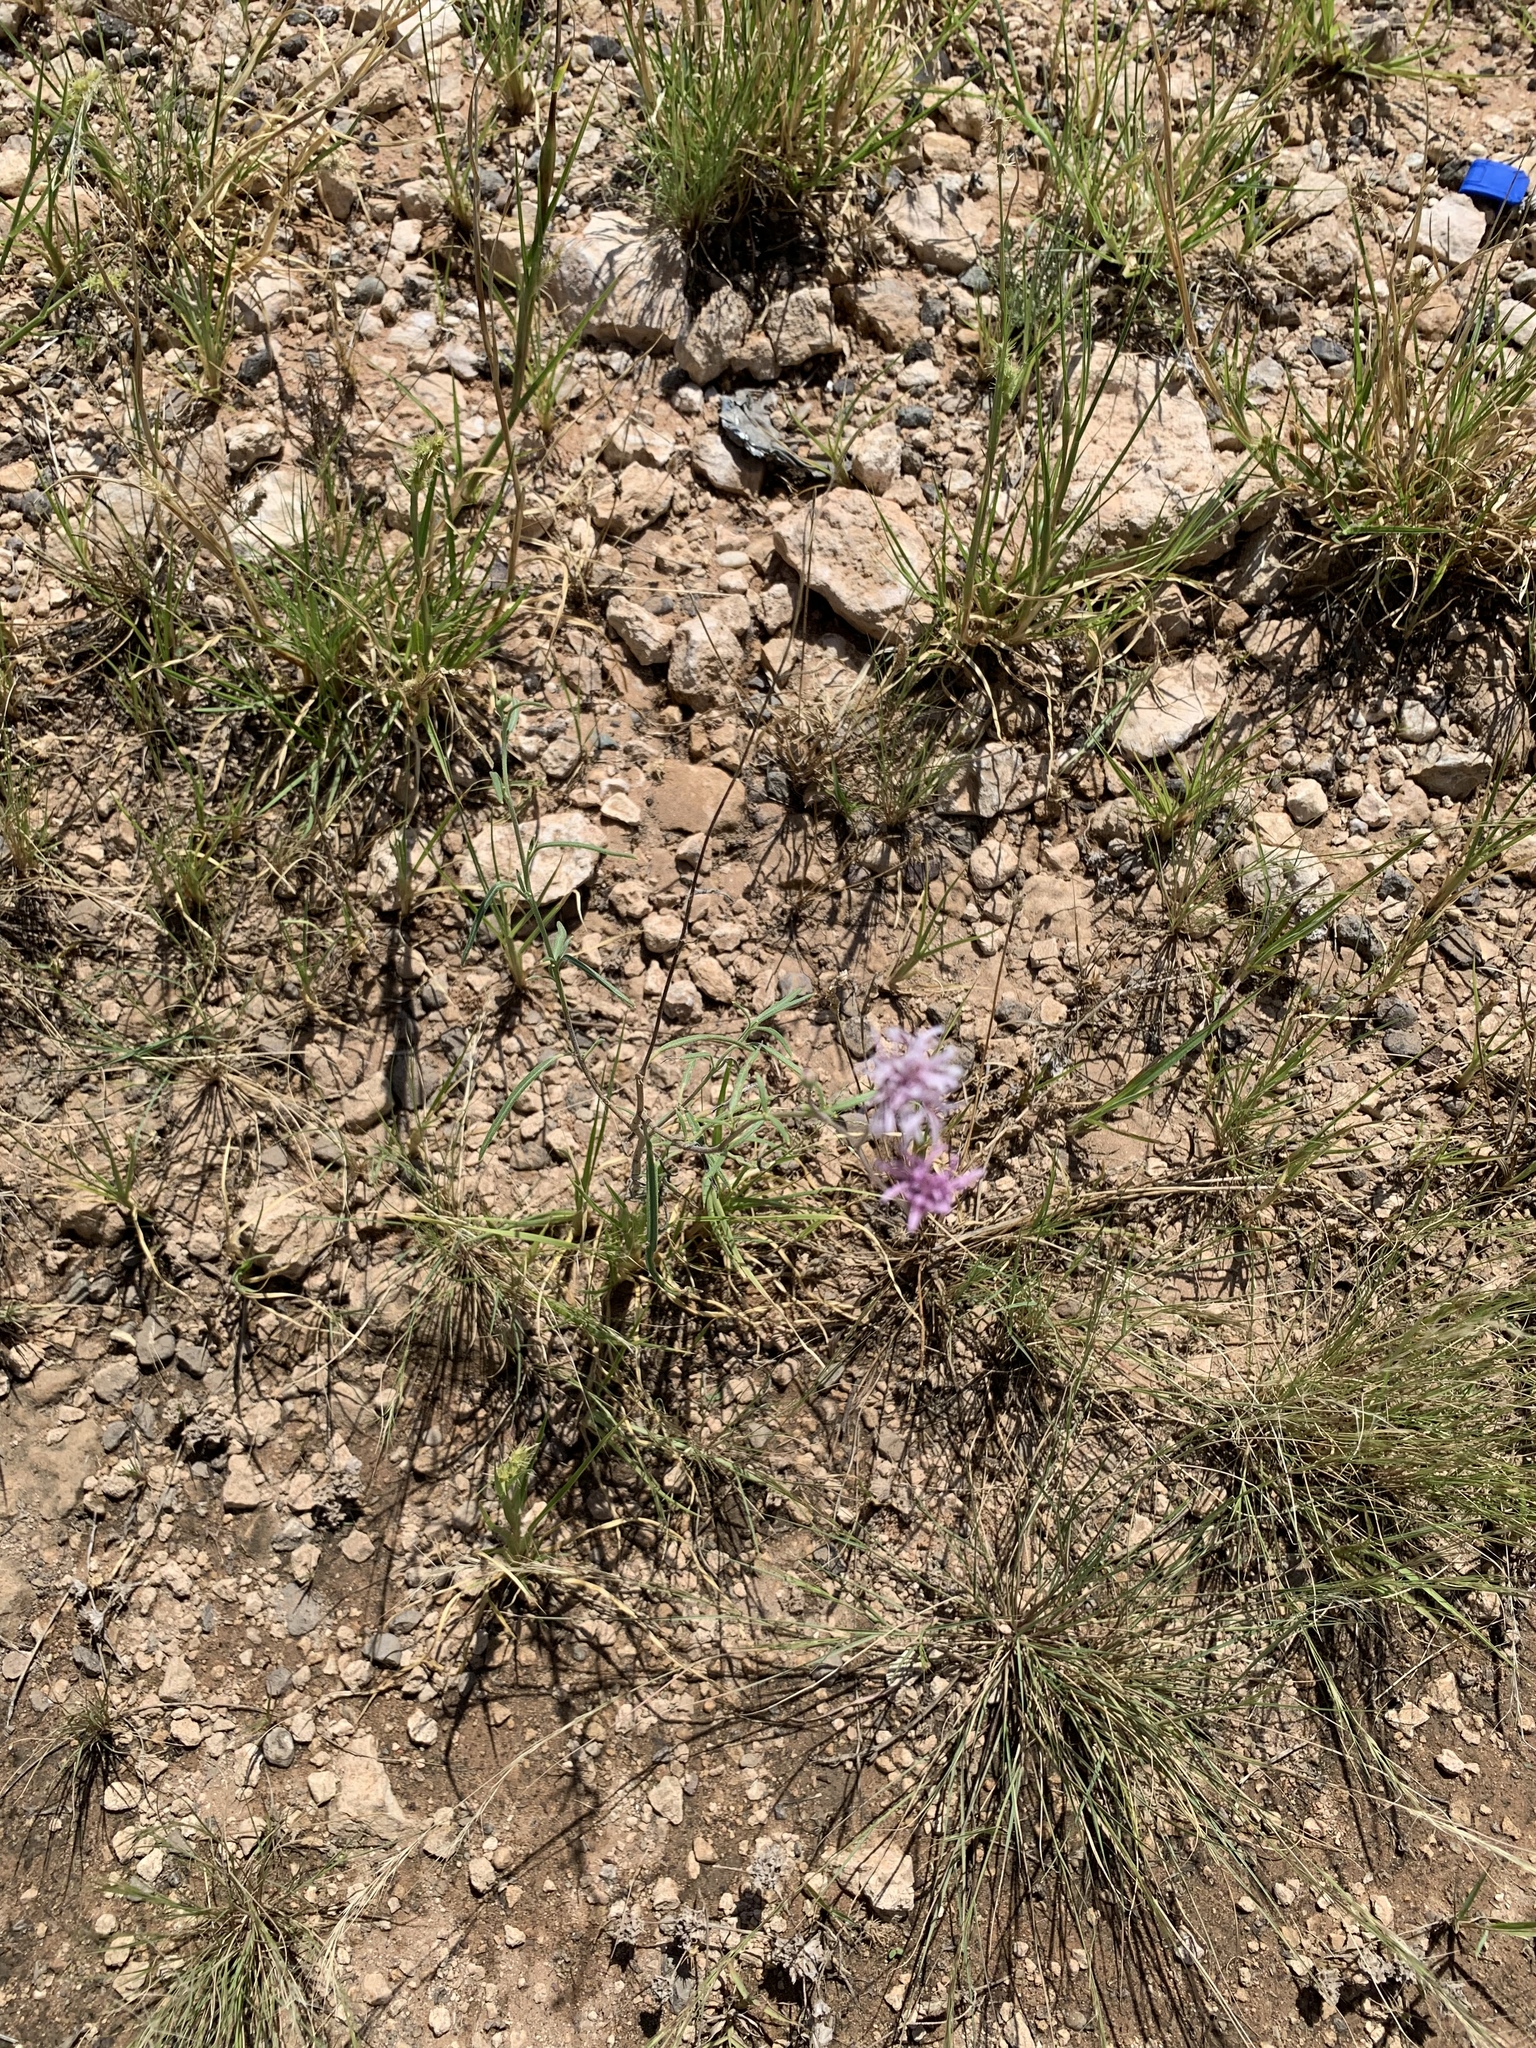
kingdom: Plantae
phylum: Tracheophyta
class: Magnoliopsida
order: Asterales
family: Asteraceae
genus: Palafoxia
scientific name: Palafoxia rosea
